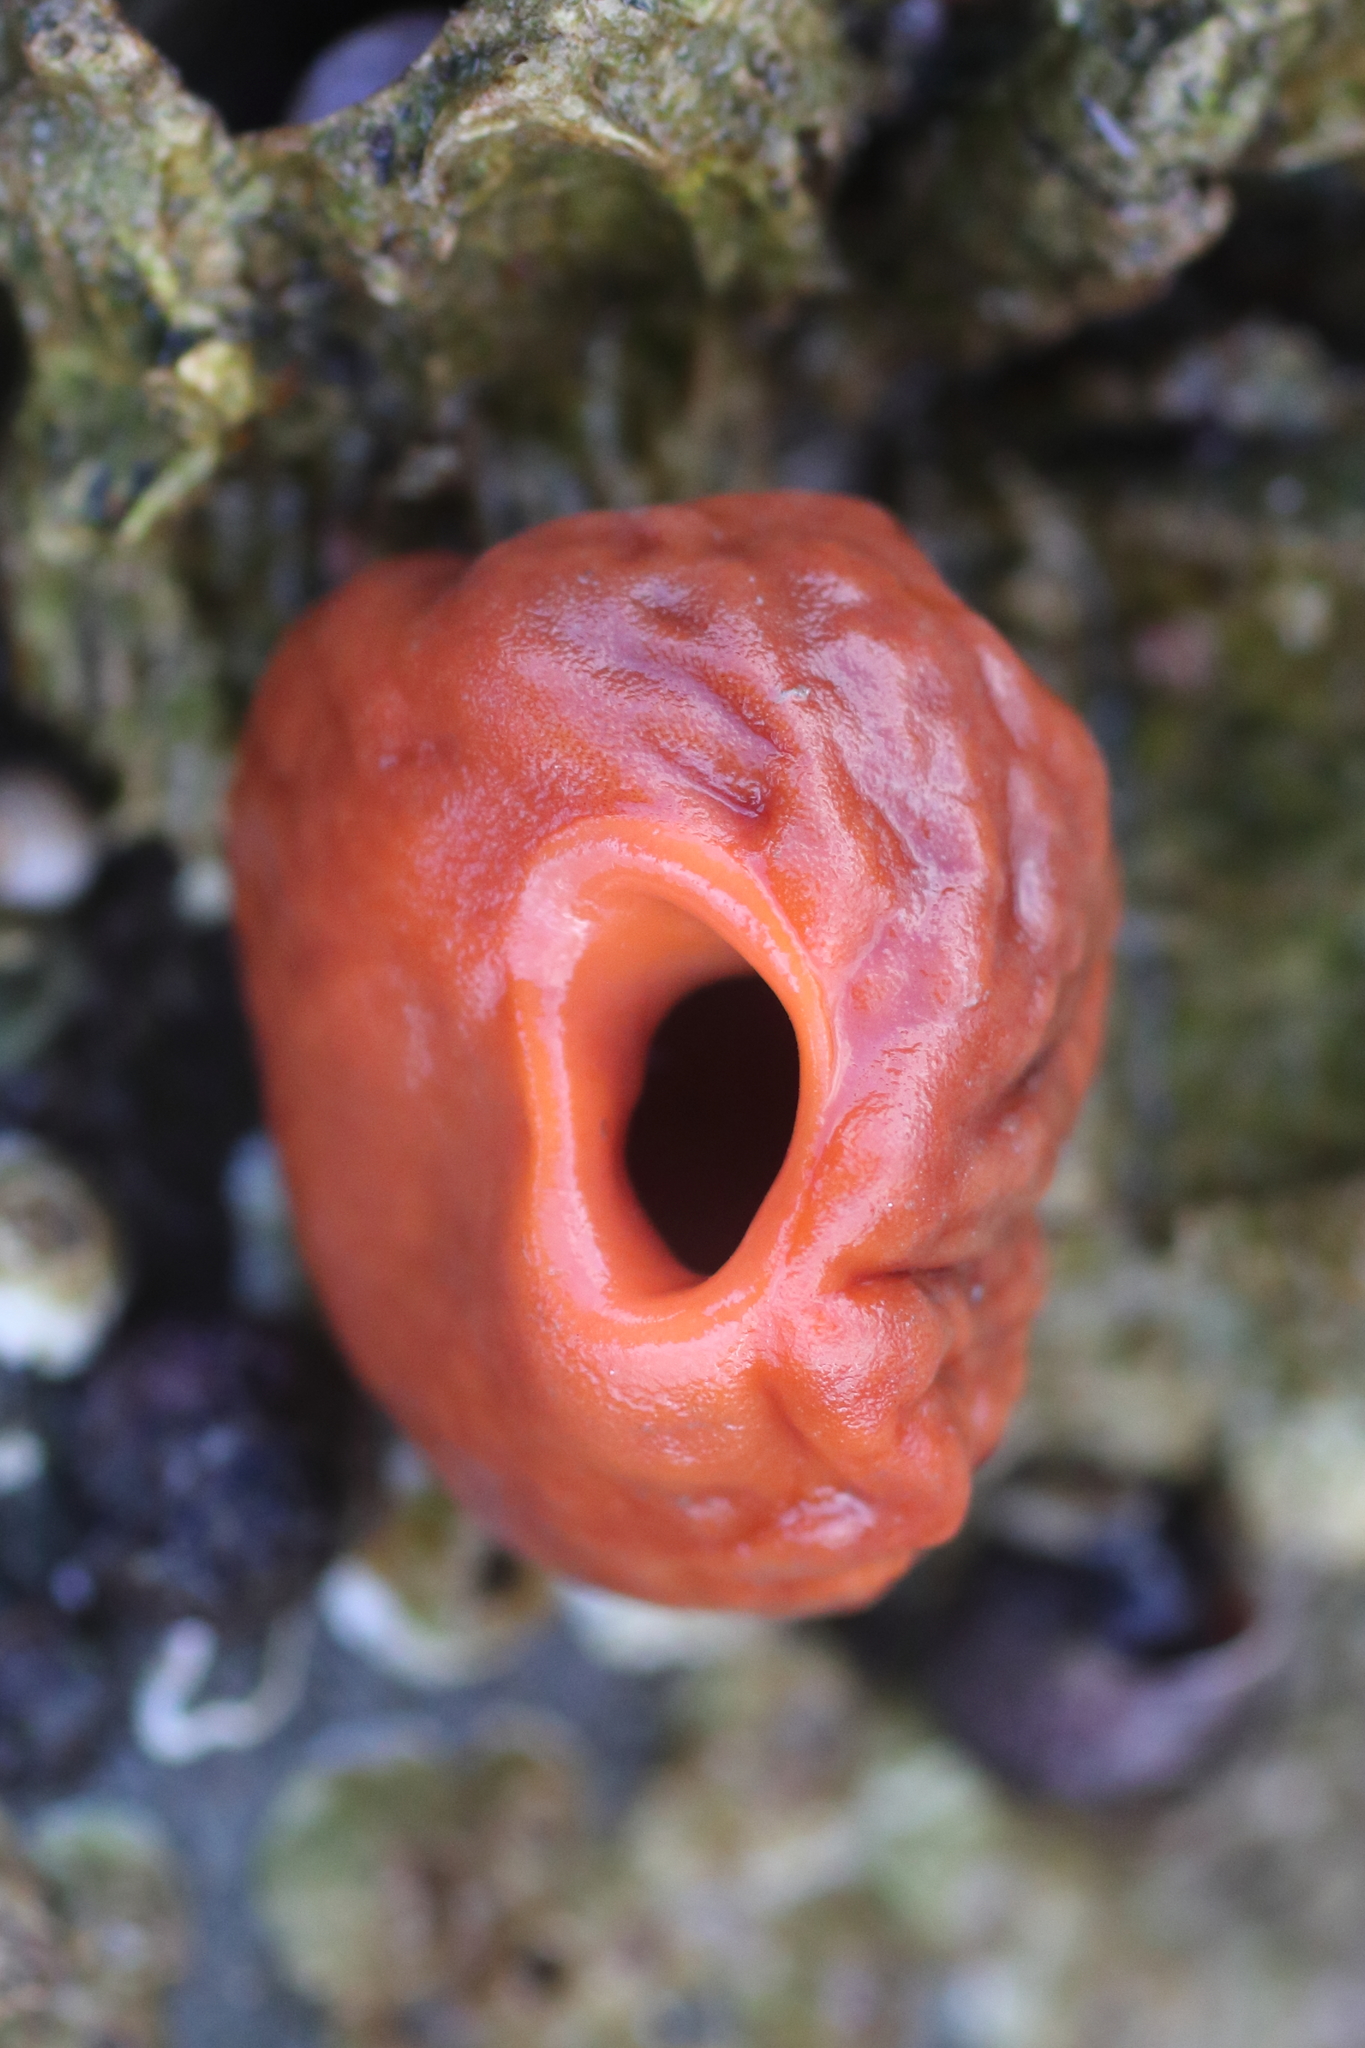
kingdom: Animalia
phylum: Porifera
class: Demospongiae
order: Suberitida
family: Suberitidae
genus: Suberites
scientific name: Suberites latus
